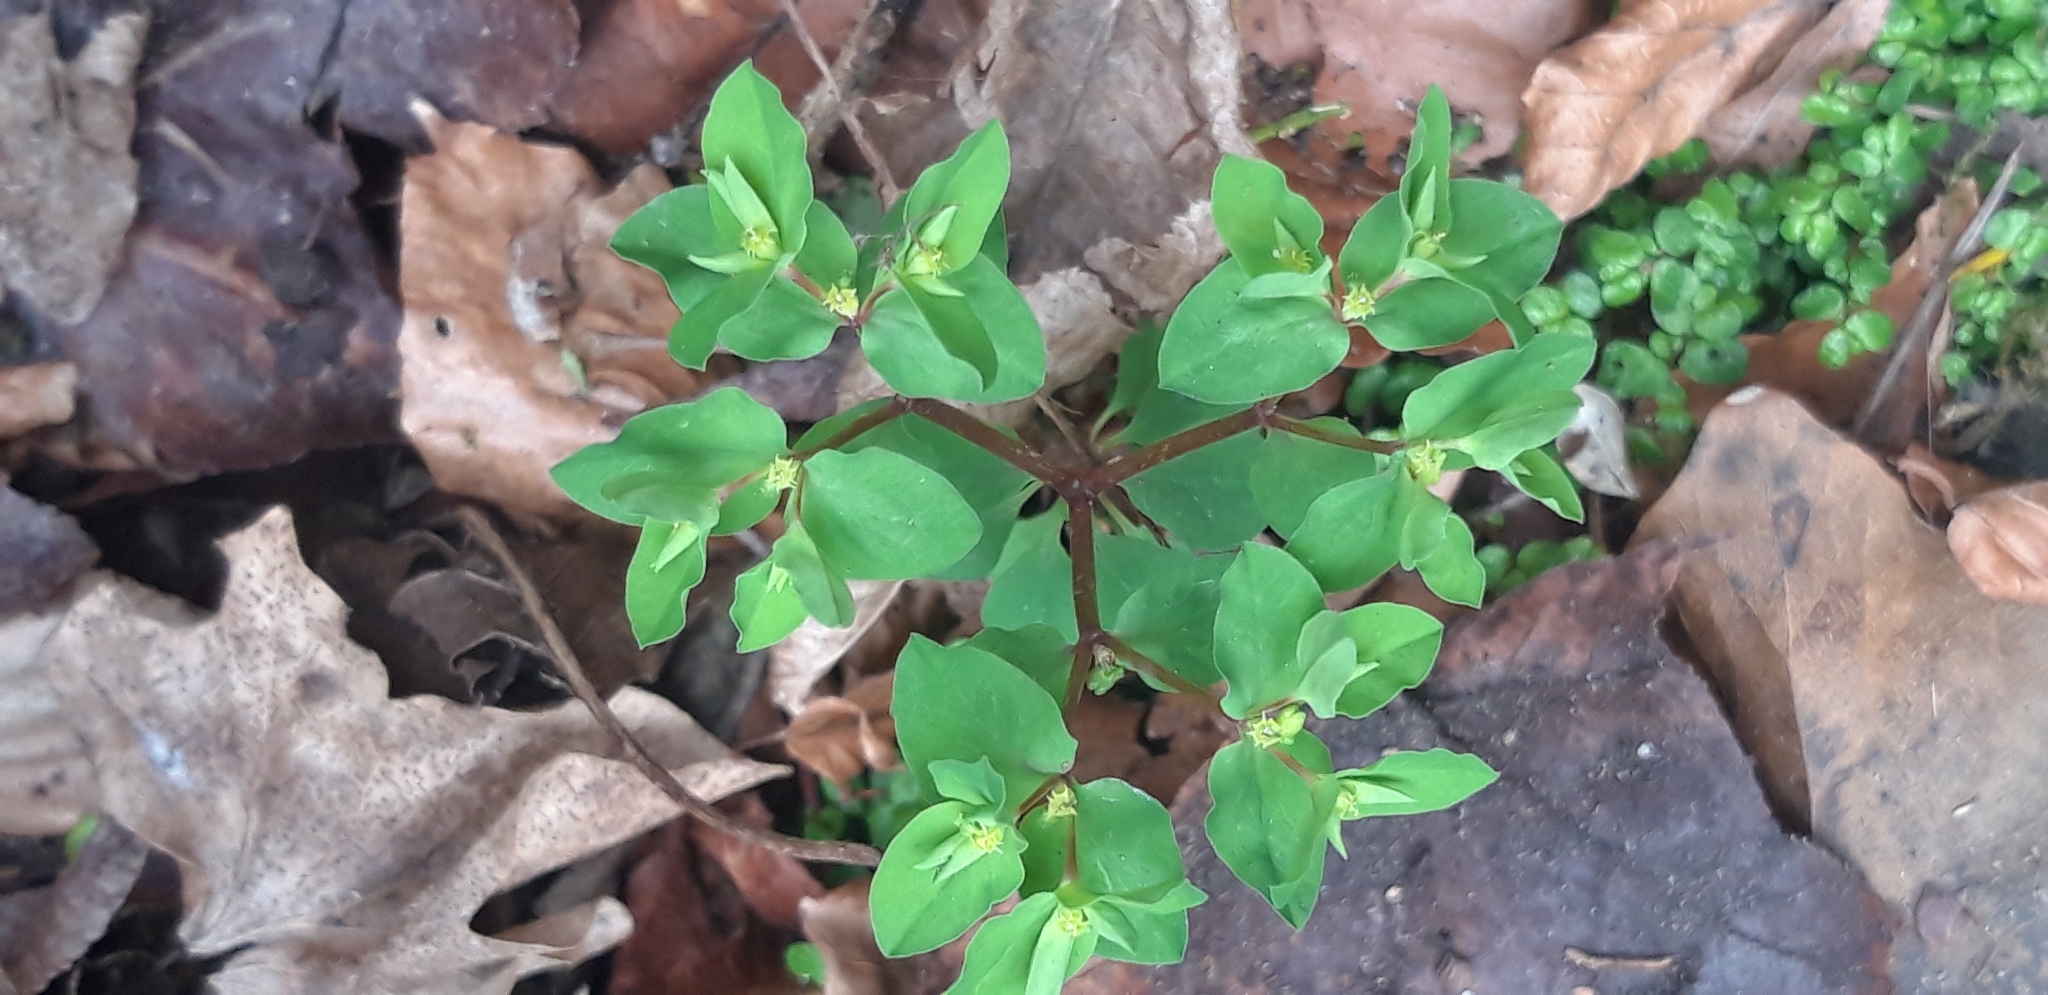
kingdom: Plantae
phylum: Tracheophyta
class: Magnoliopsida
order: Malpighiales
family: Euphorbiaceae
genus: Euphorbia
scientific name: Euphorbia peplus
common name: Petty spurge
